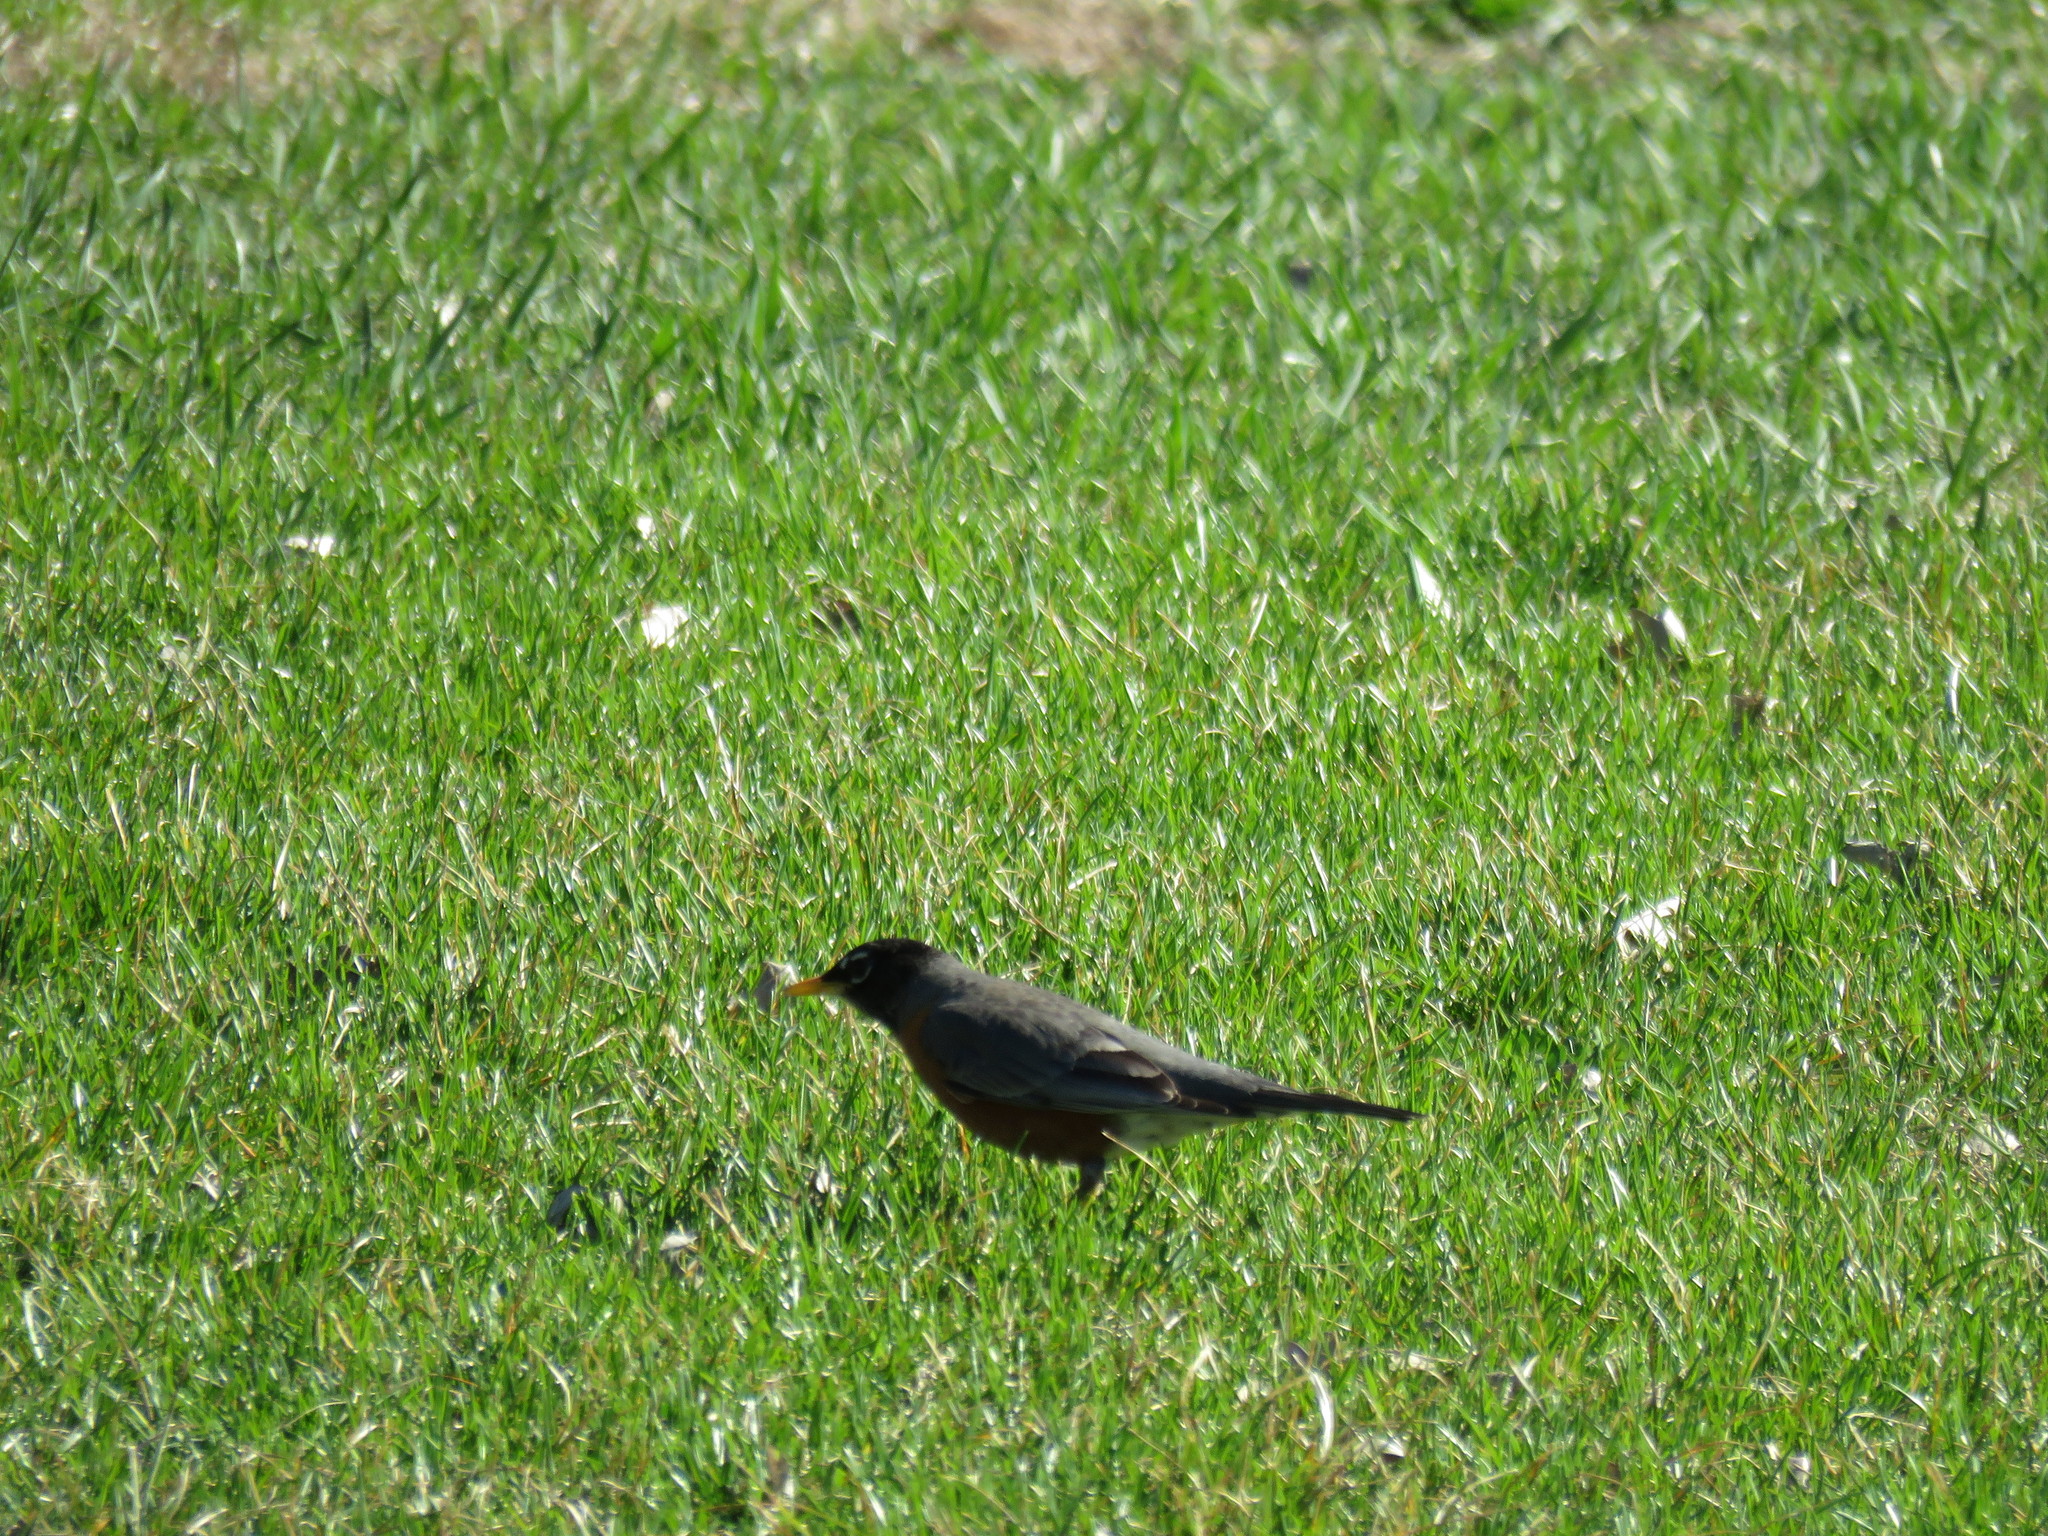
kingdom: Animalia
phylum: Chordata
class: Aves
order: Passeriformes
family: Turdidae
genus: Turdus
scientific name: Turdus migratorius
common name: American robin
